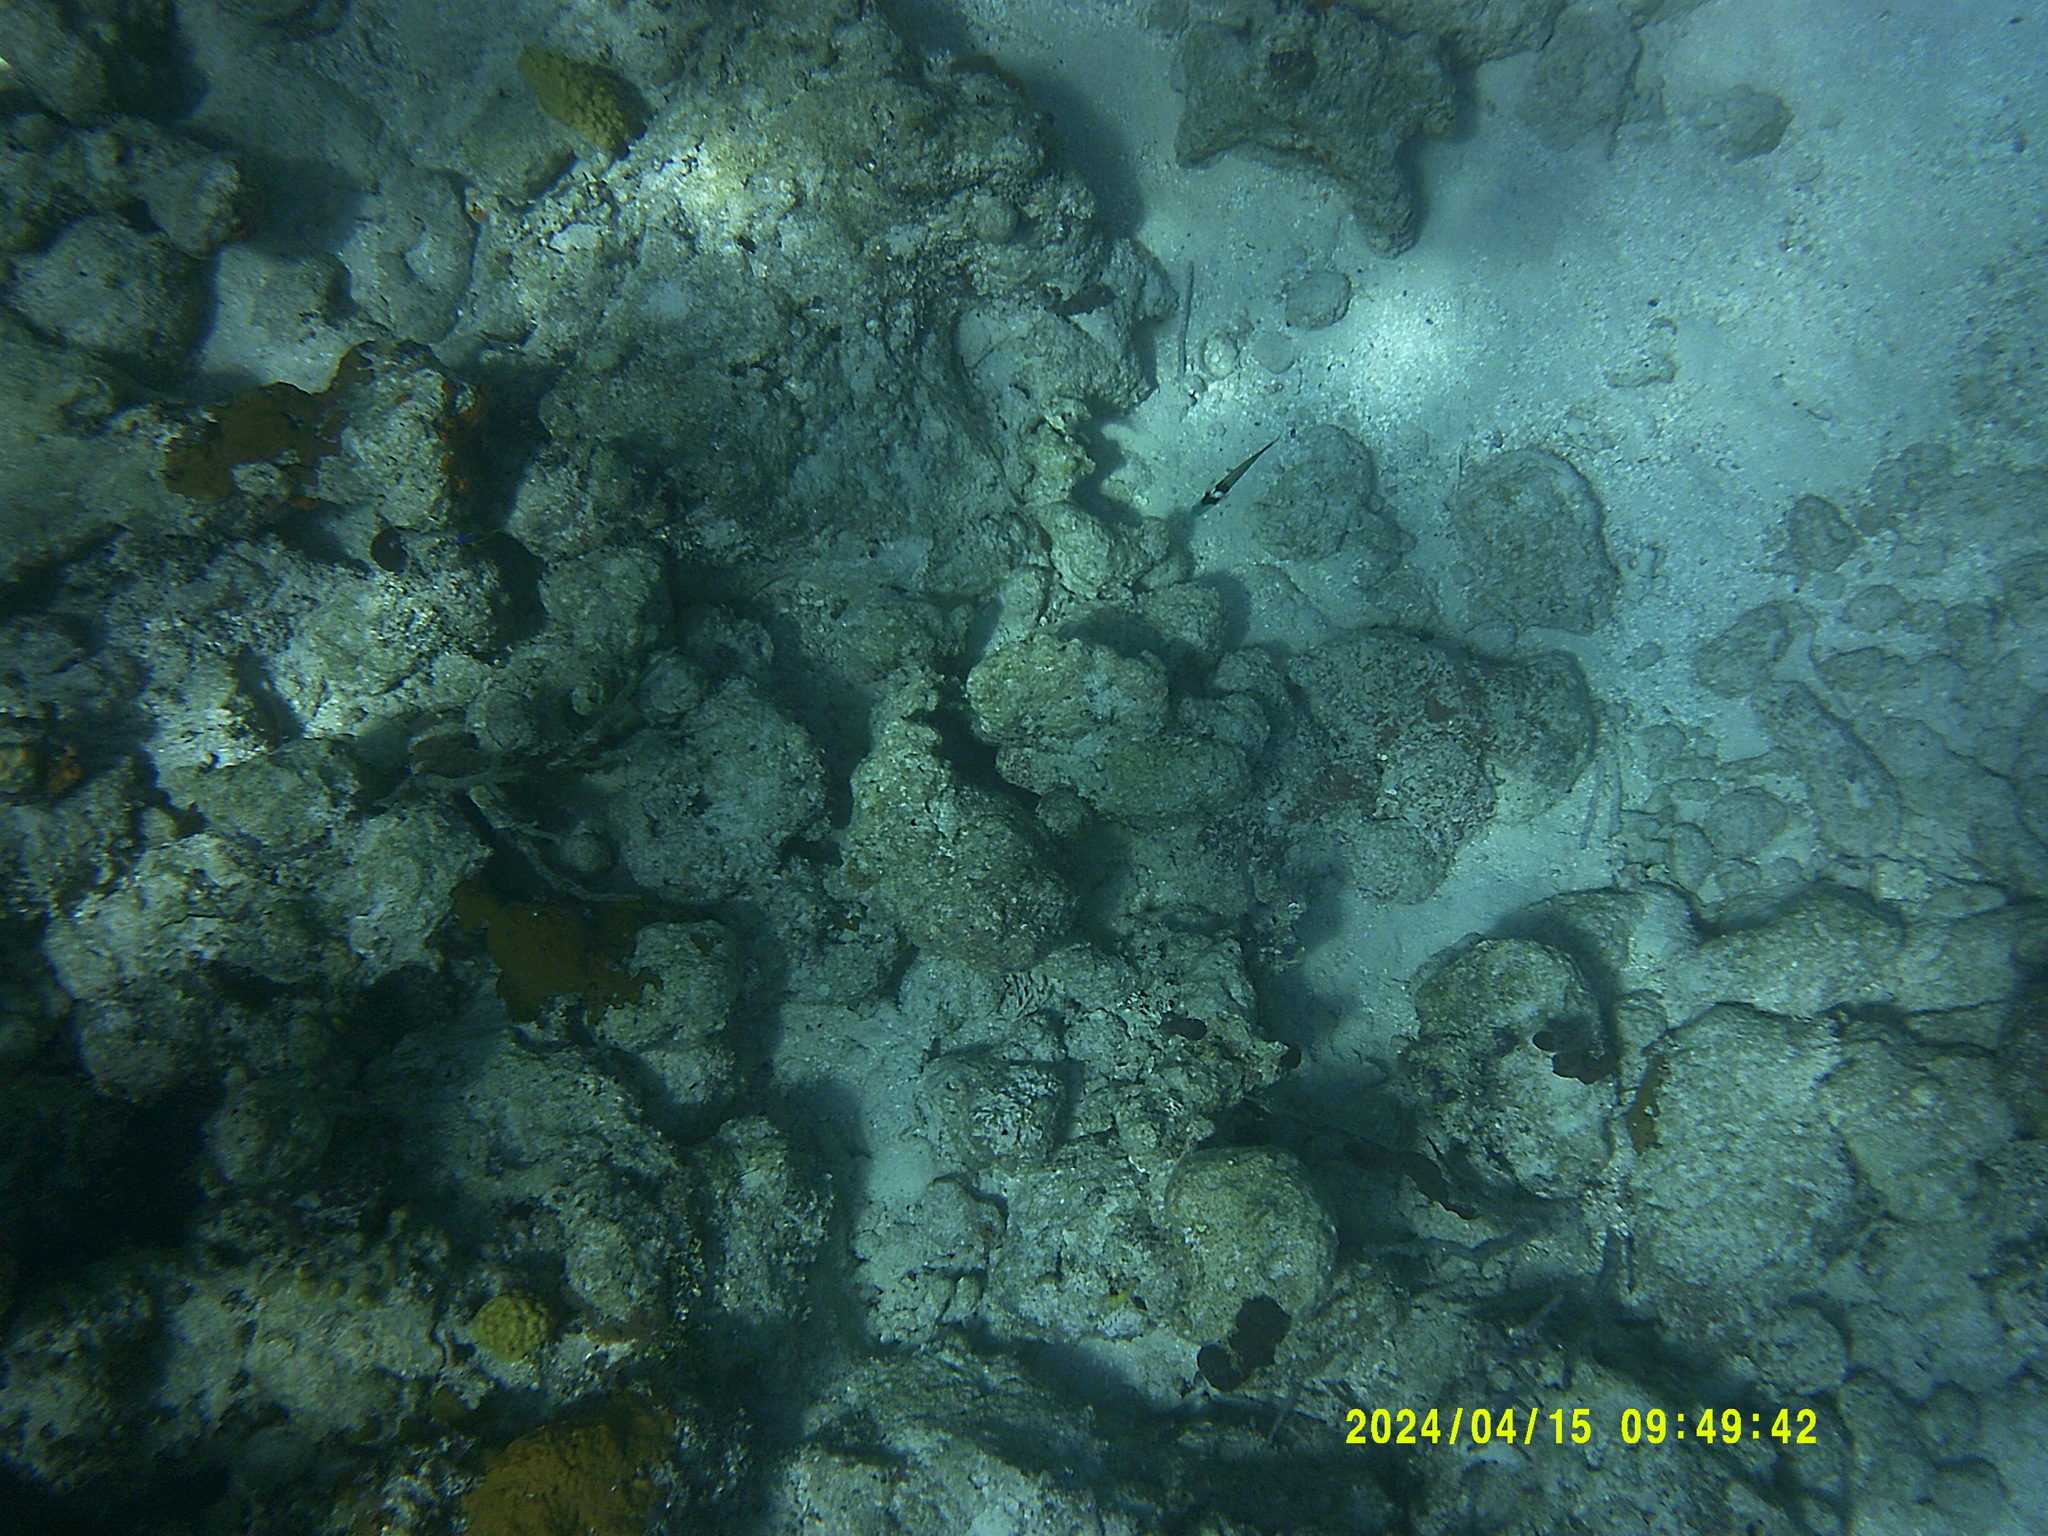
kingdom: Animalia
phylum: Chordata
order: Perciformes
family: Labridae
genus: Thalassoma
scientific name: Thalassoma bifasciatum
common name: Bluehead wrasse
